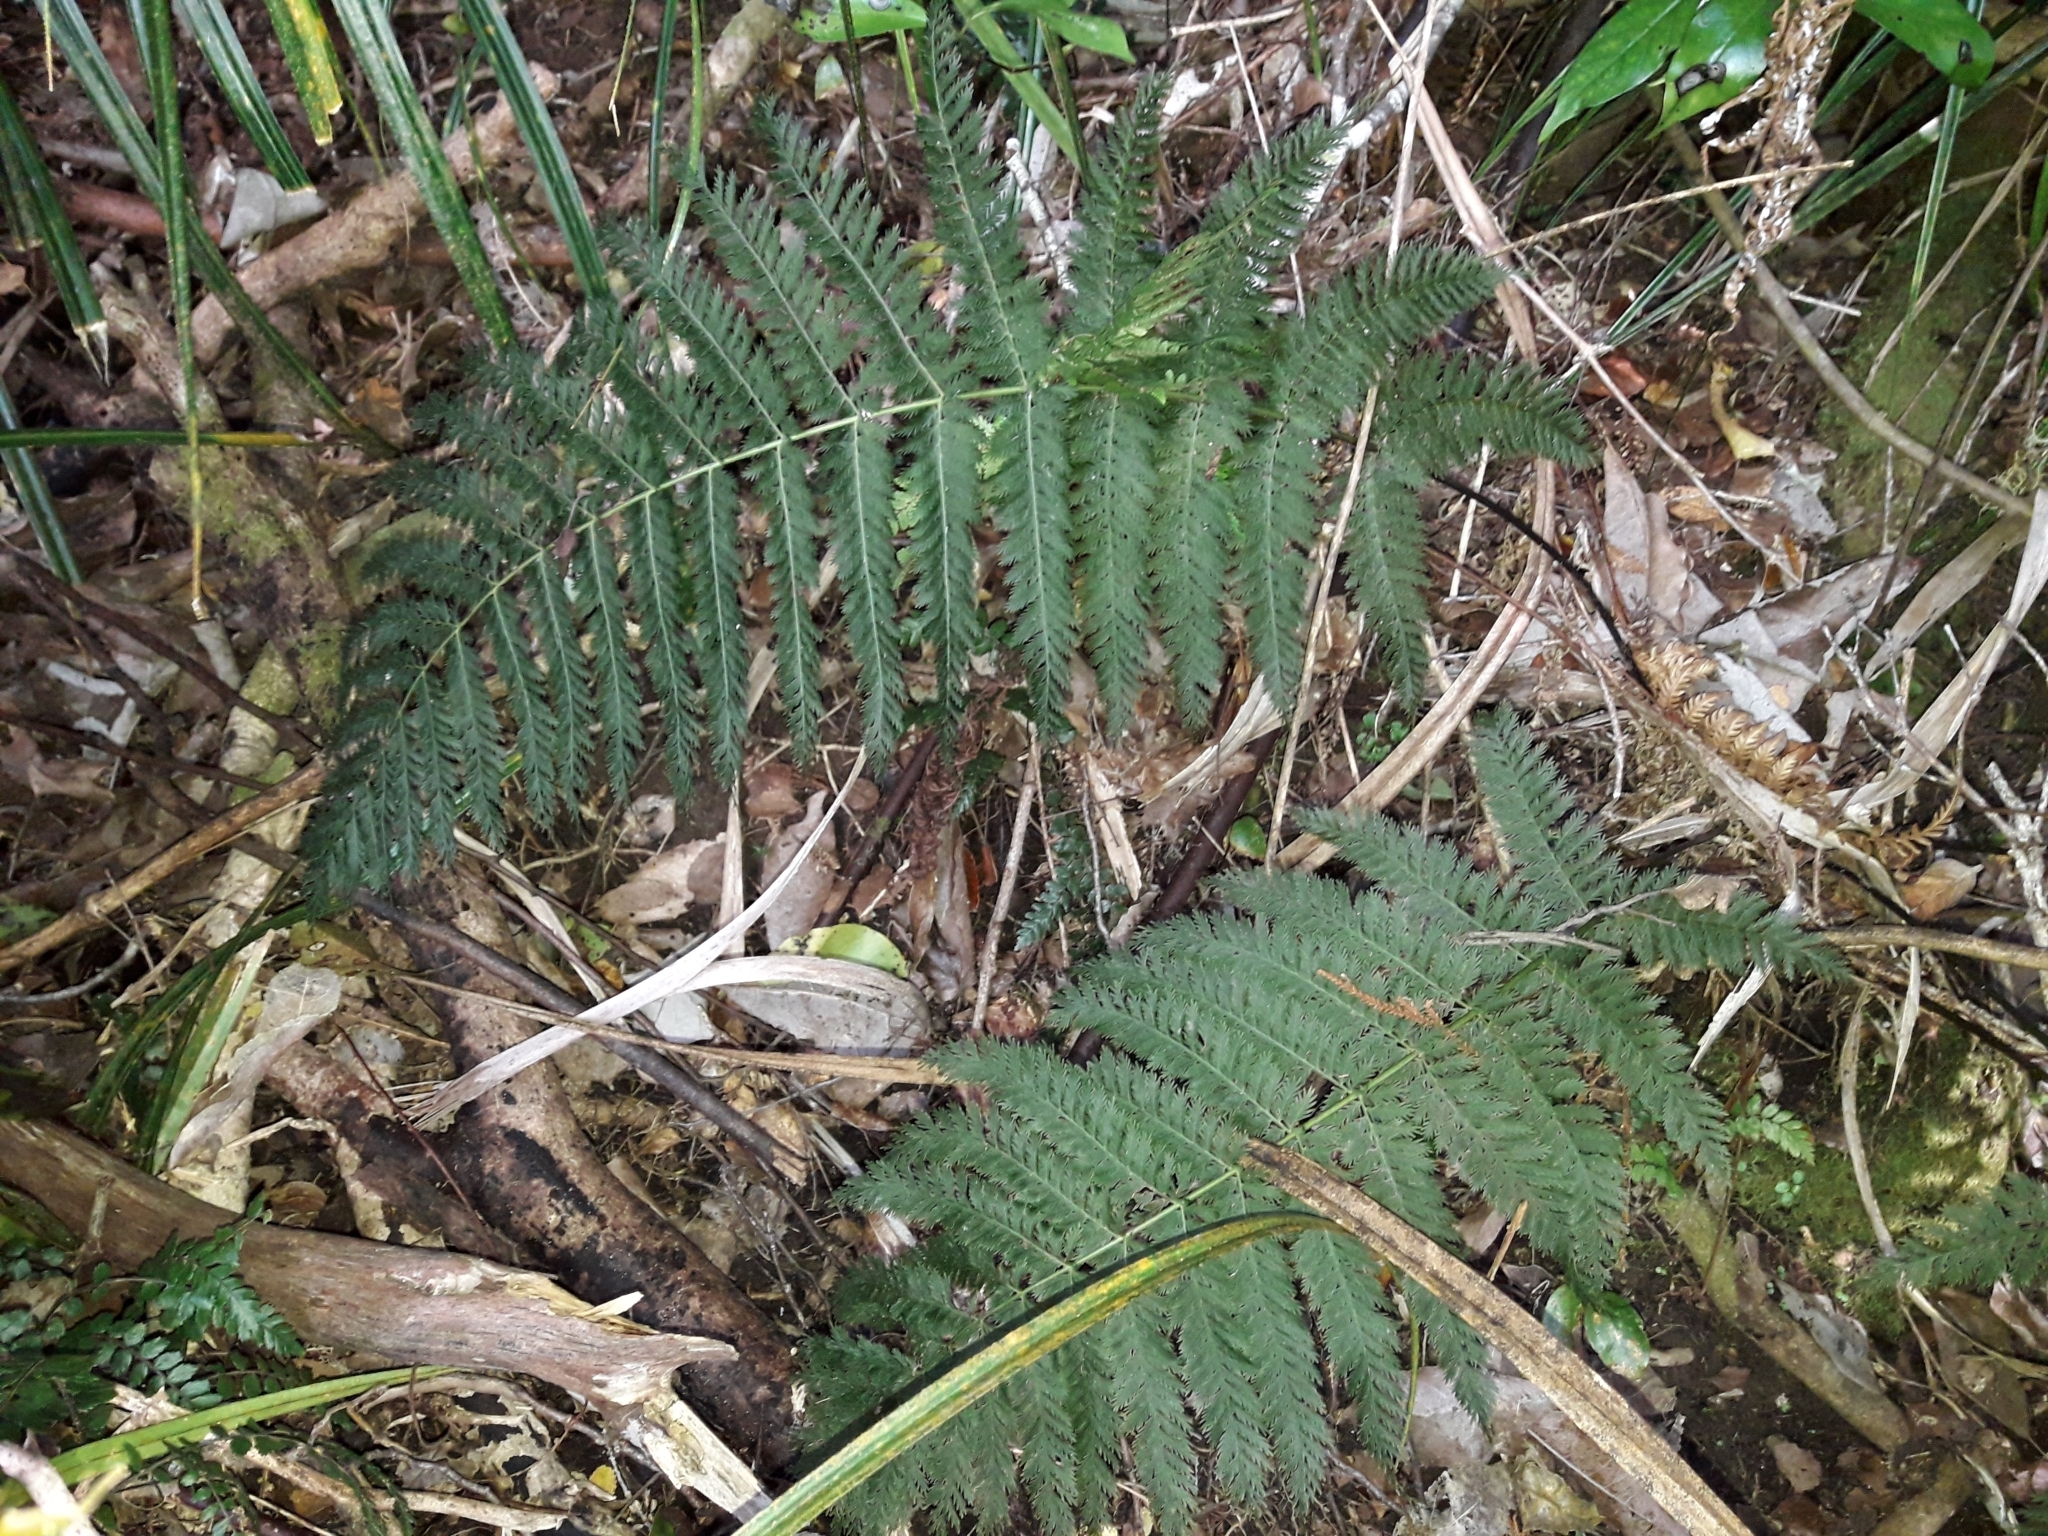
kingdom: Plantae
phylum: Tracheophyta
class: Polypodiopsida
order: Osmundales
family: Osmundaceae
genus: Leptopteris
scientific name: Leptopteris hymenophylloides
